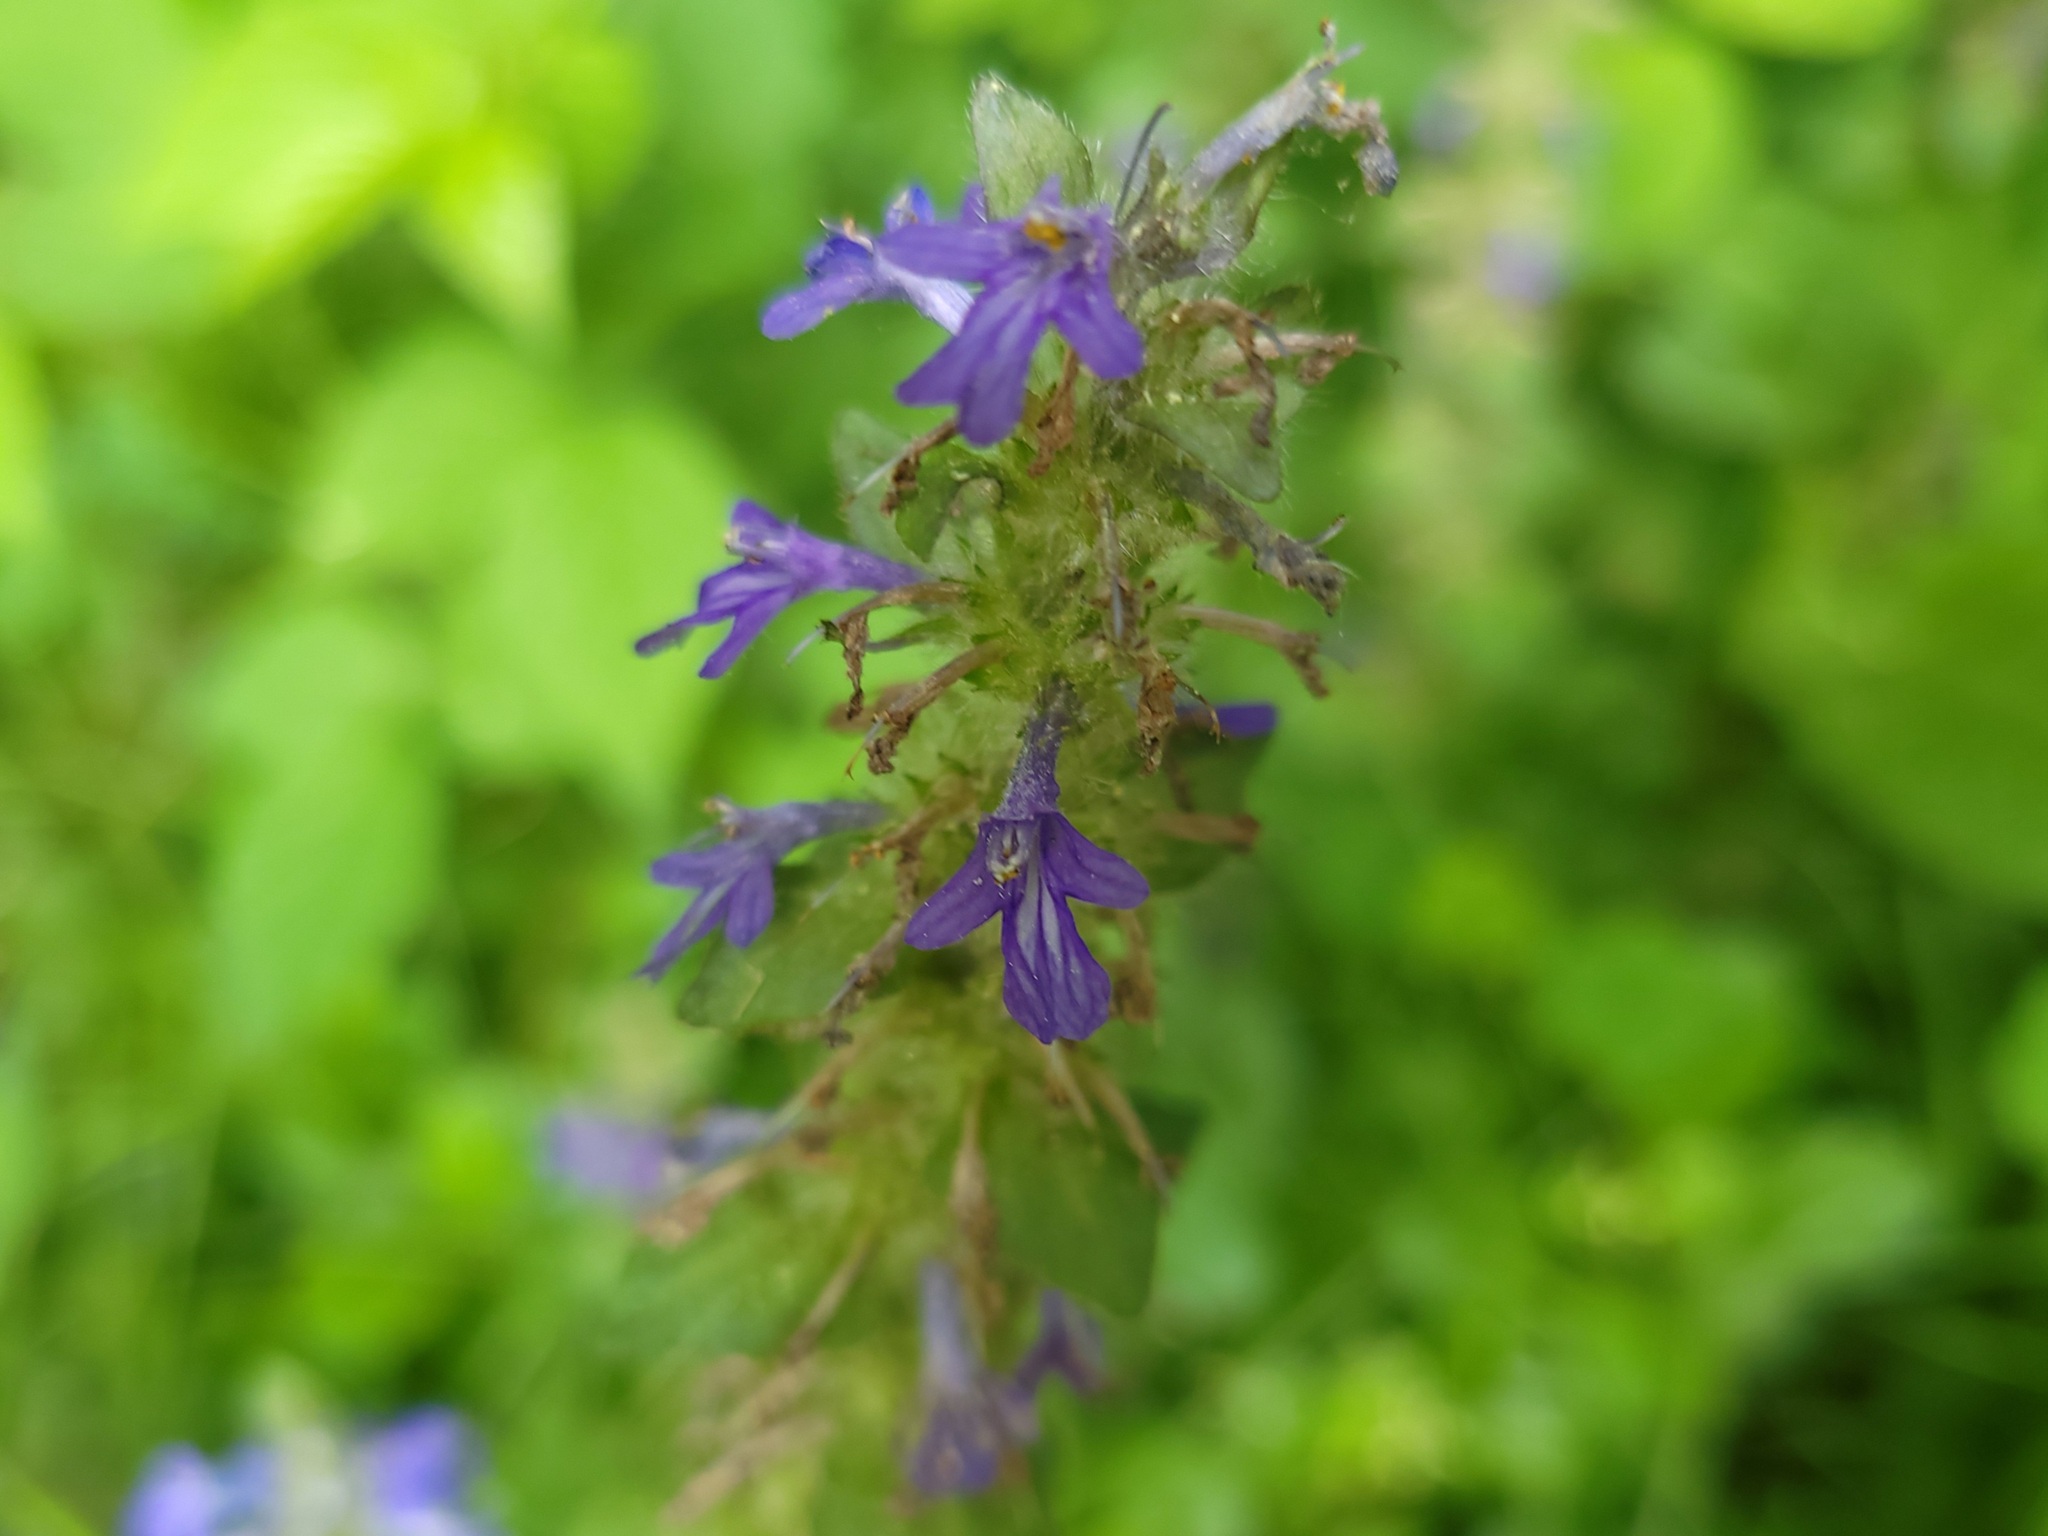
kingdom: Plantae
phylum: Tracheophyta
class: Magnoliopsida
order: Lamiales
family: Lamiaceae
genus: Ajuga
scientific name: Ajuga genevensis
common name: Blue bugle
